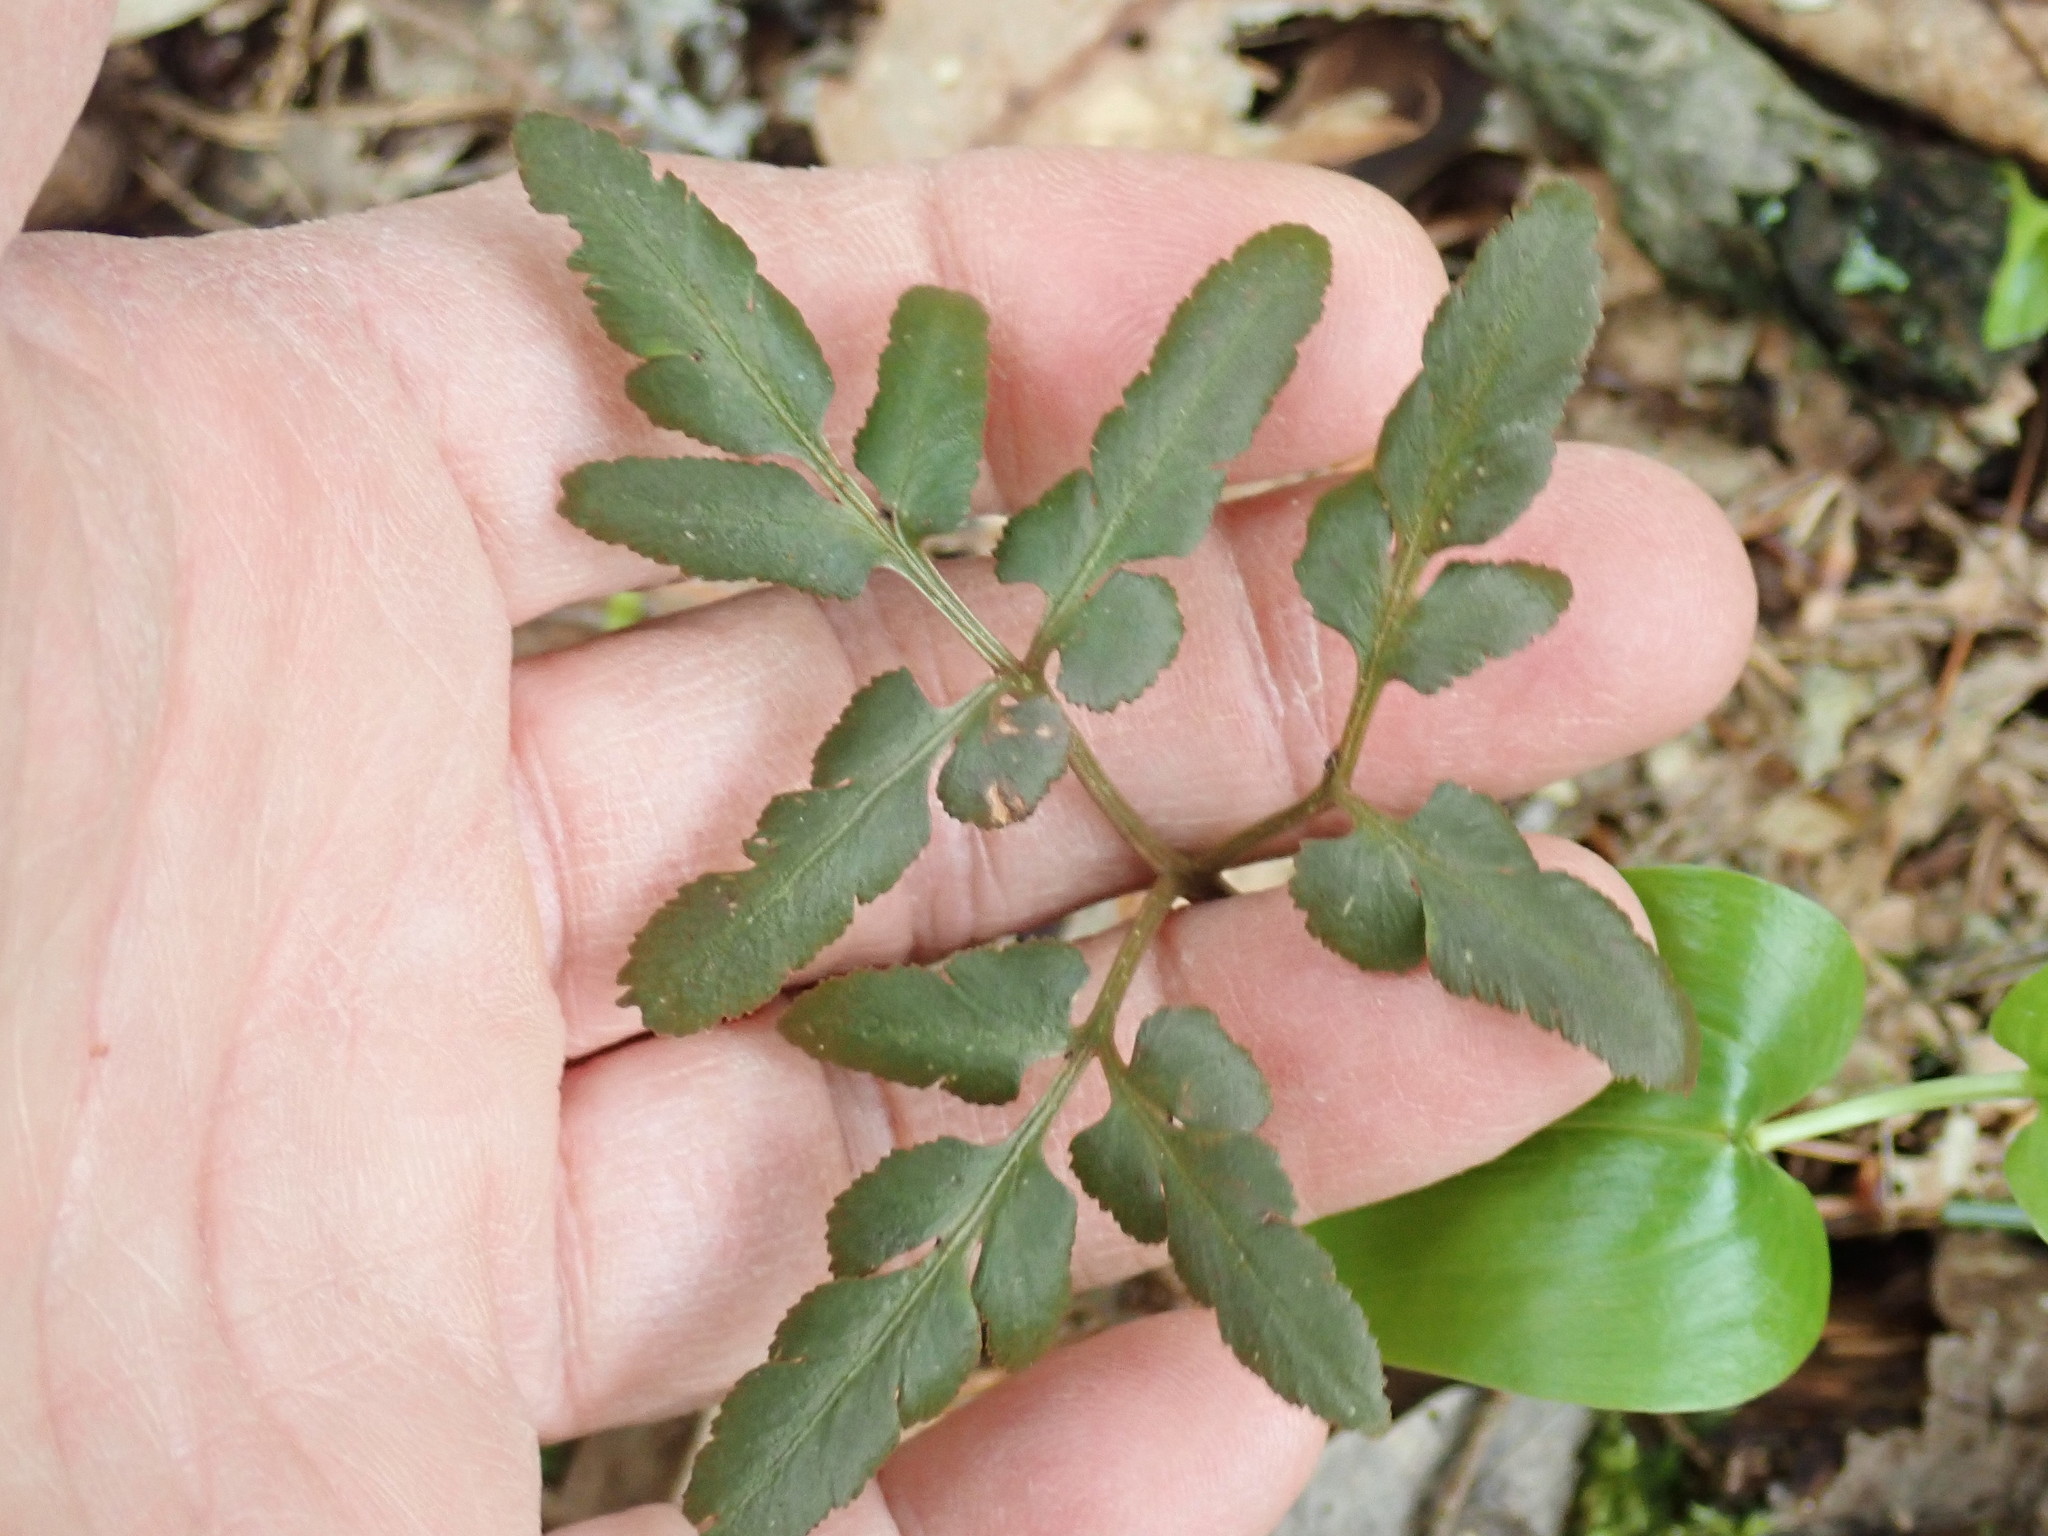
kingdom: Plantae
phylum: Tracheophyta
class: Polypodiopsida
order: Ophioglossales
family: Ophioglossaceae
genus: Sceptridium
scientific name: Sceptridium dissectum
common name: Cut-leaved grapefern
